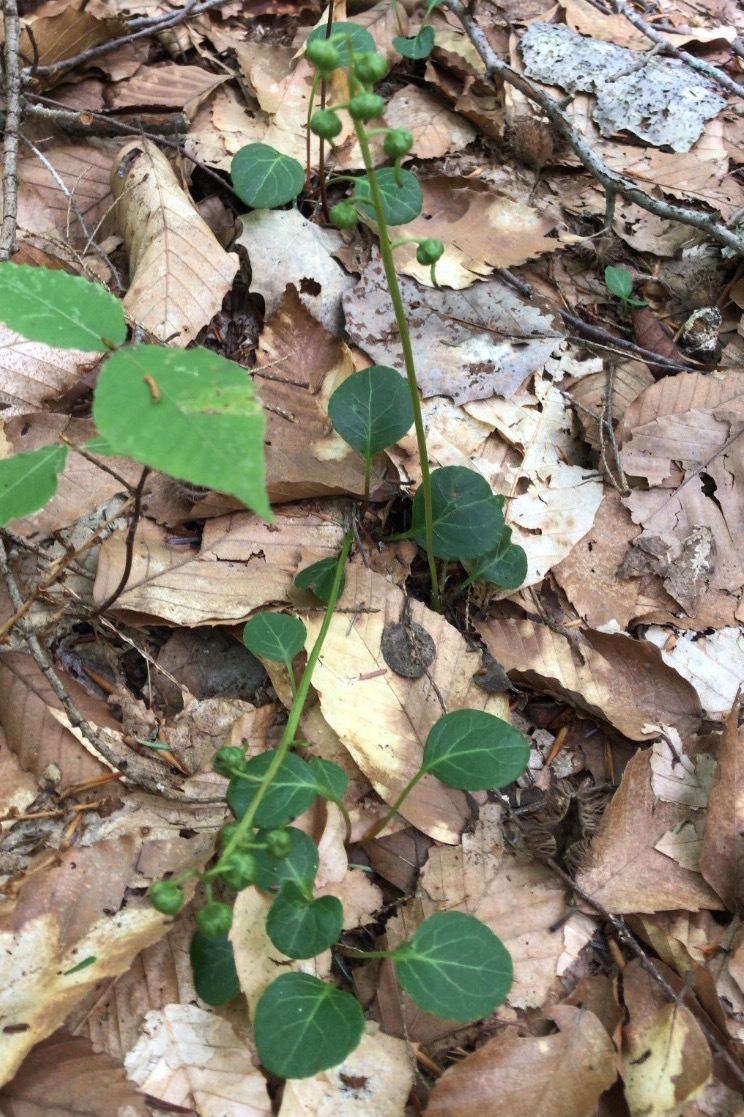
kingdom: Plantae
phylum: Tracheophyta
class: Magnoliopsida
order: Ericales
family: Ericaceae
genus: Pyrola
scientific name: Pyrola chlorantha
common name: Green wintergreen
